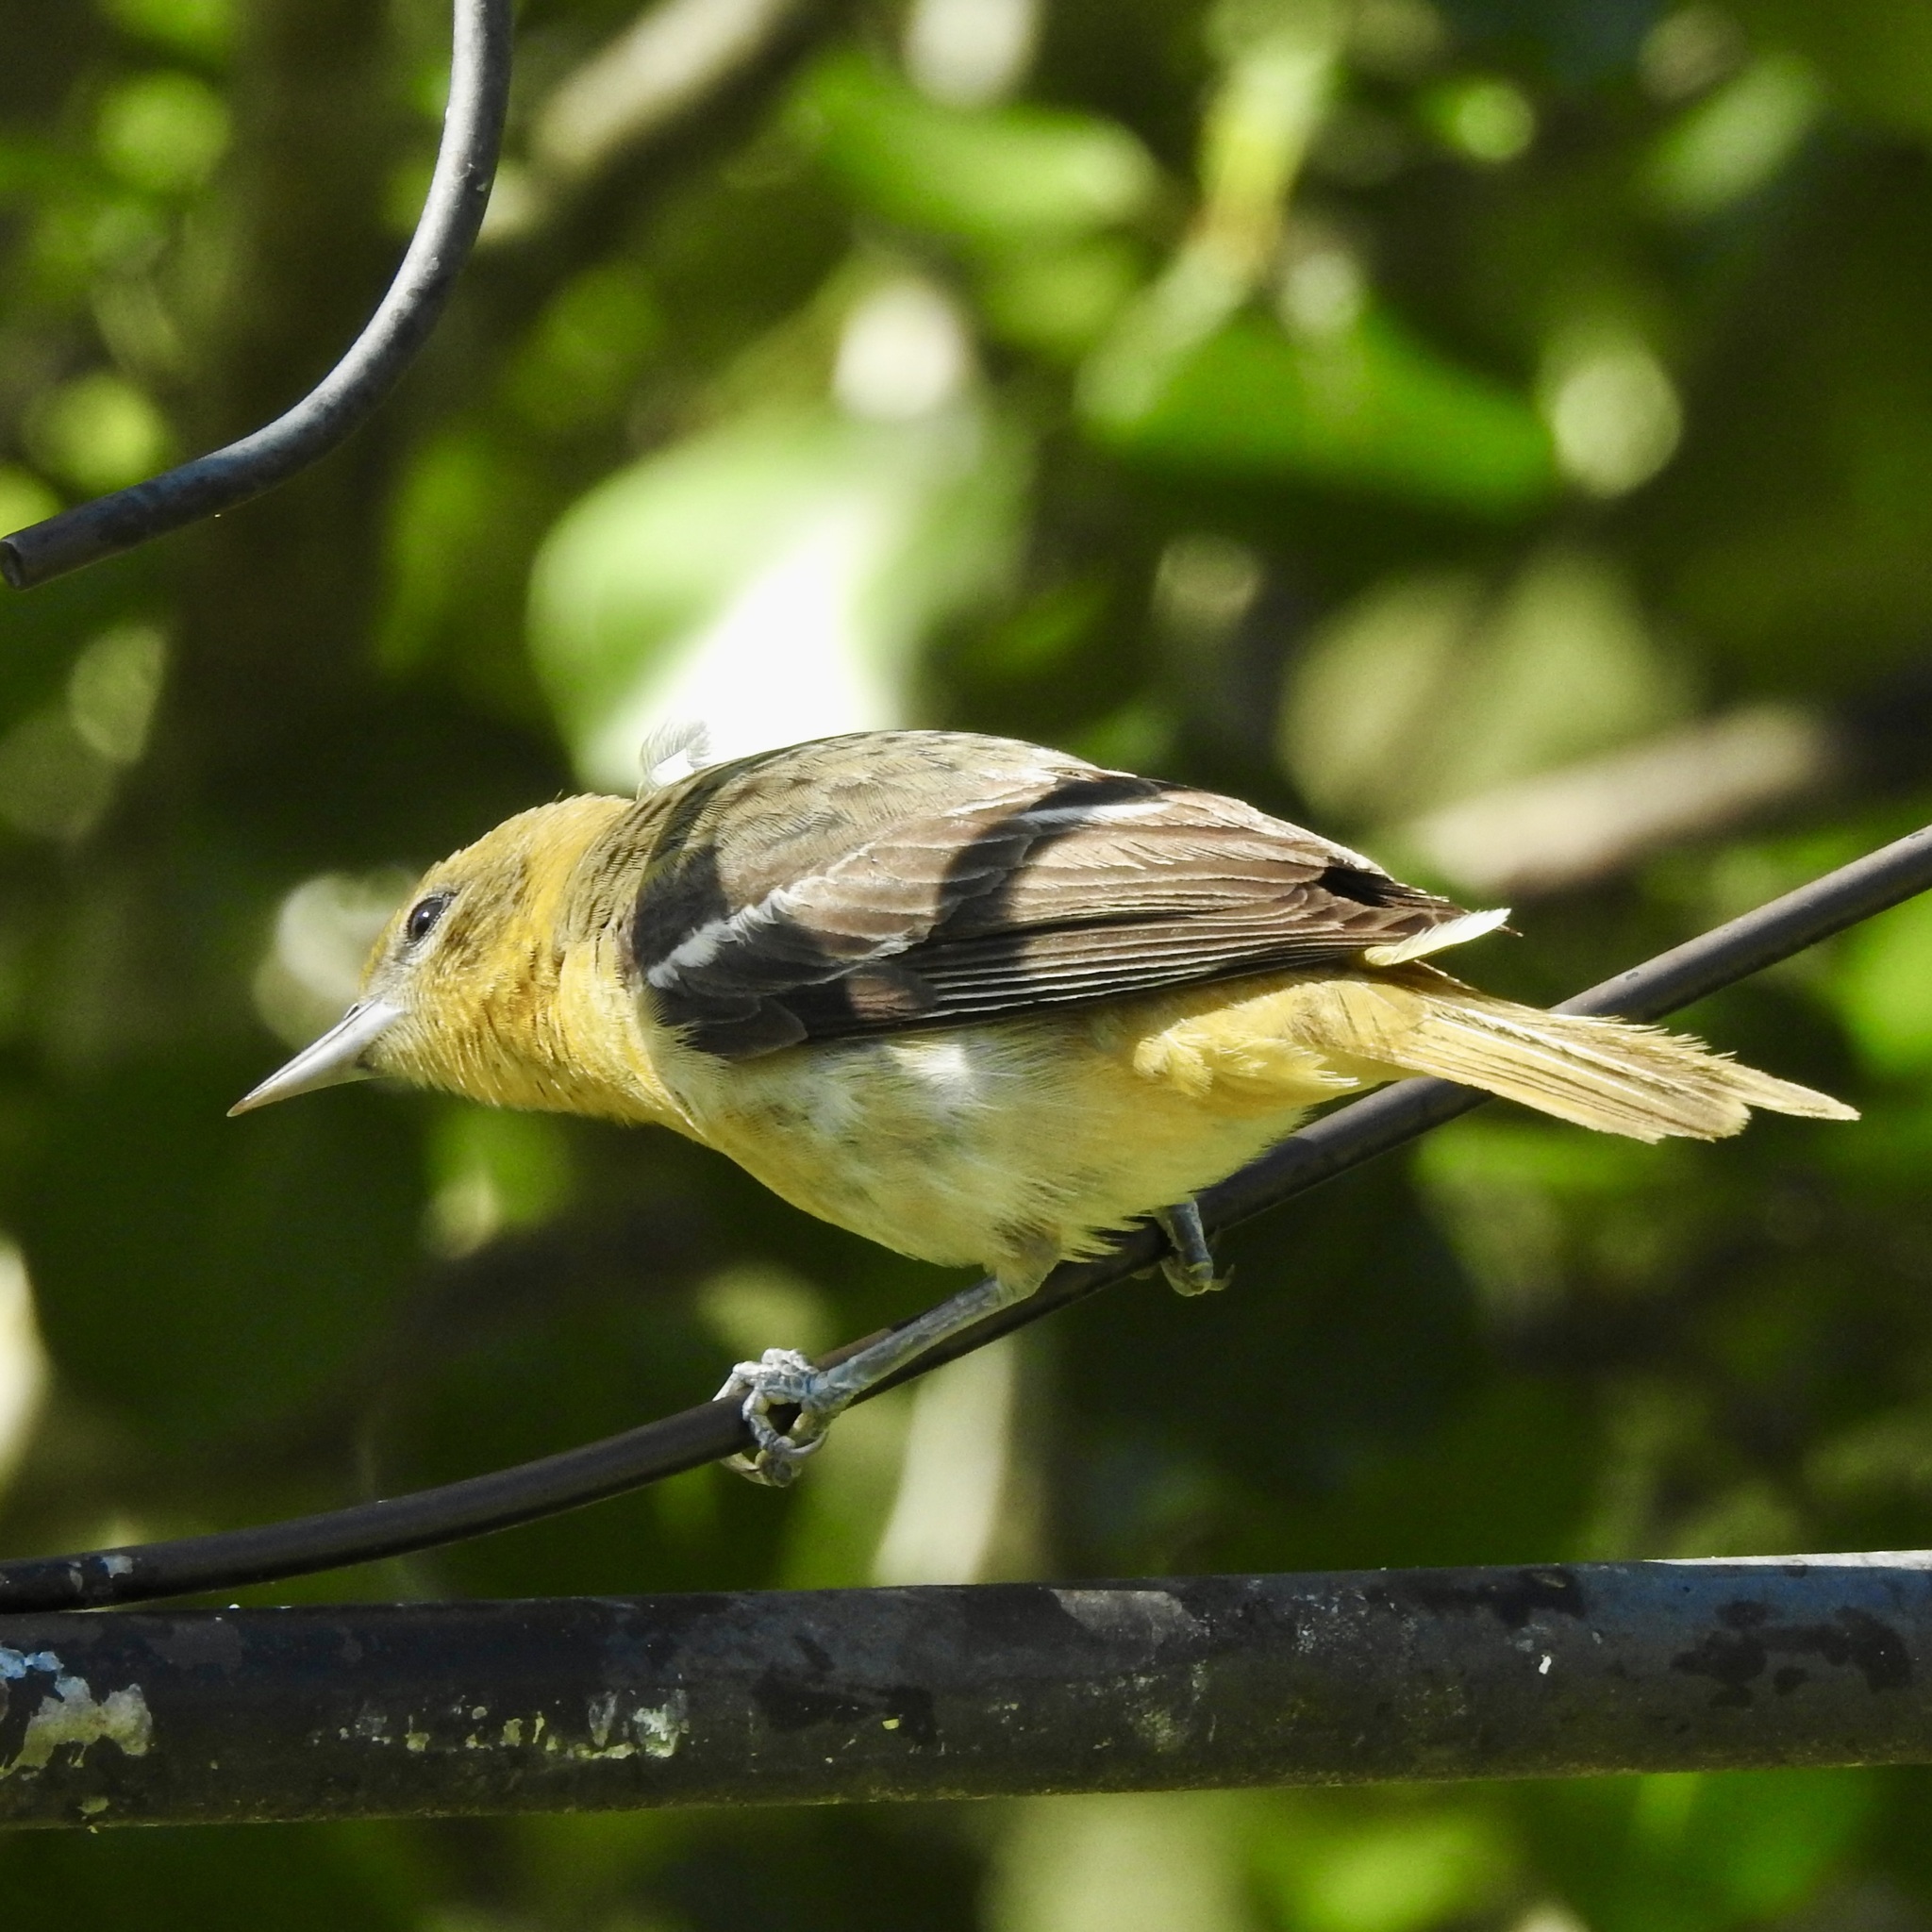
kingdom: Animalia
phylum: Chordata
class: Aves
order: Passeriformes
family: Icteridae
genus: Icterus
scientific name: Icterus galbula
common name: Baltimore oriole
